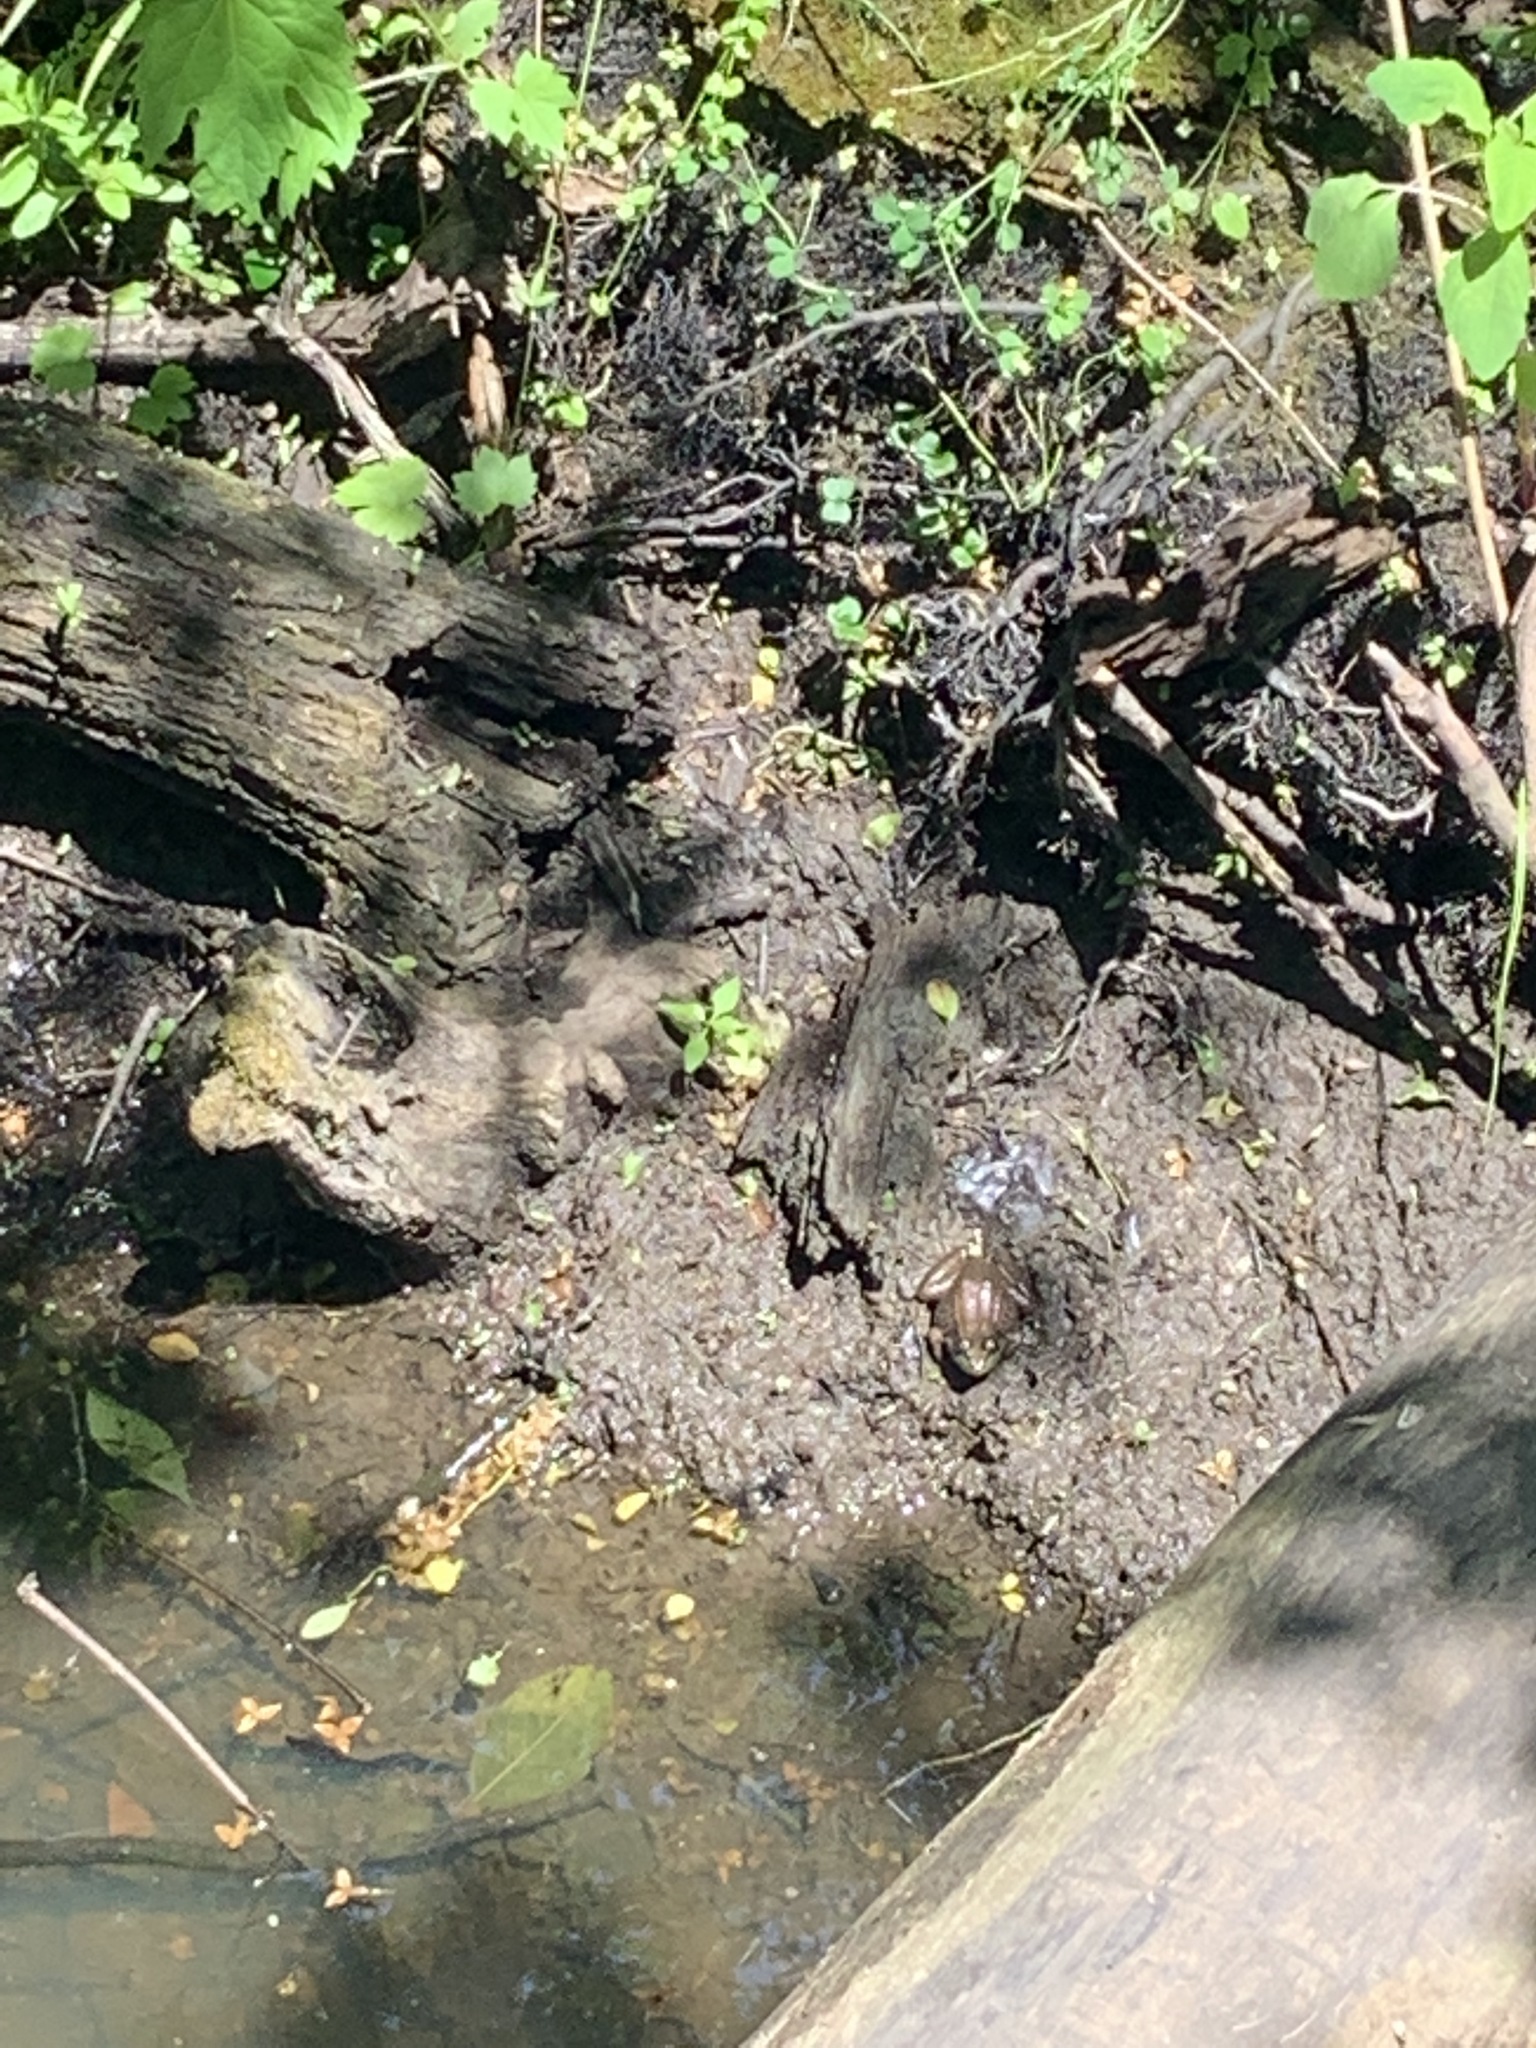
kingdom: Animalia
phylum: Chordata
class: Amphibia
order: Anura
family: Ranidae
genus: Lithobates
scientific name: Lithobates clamitans
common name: Green frog
